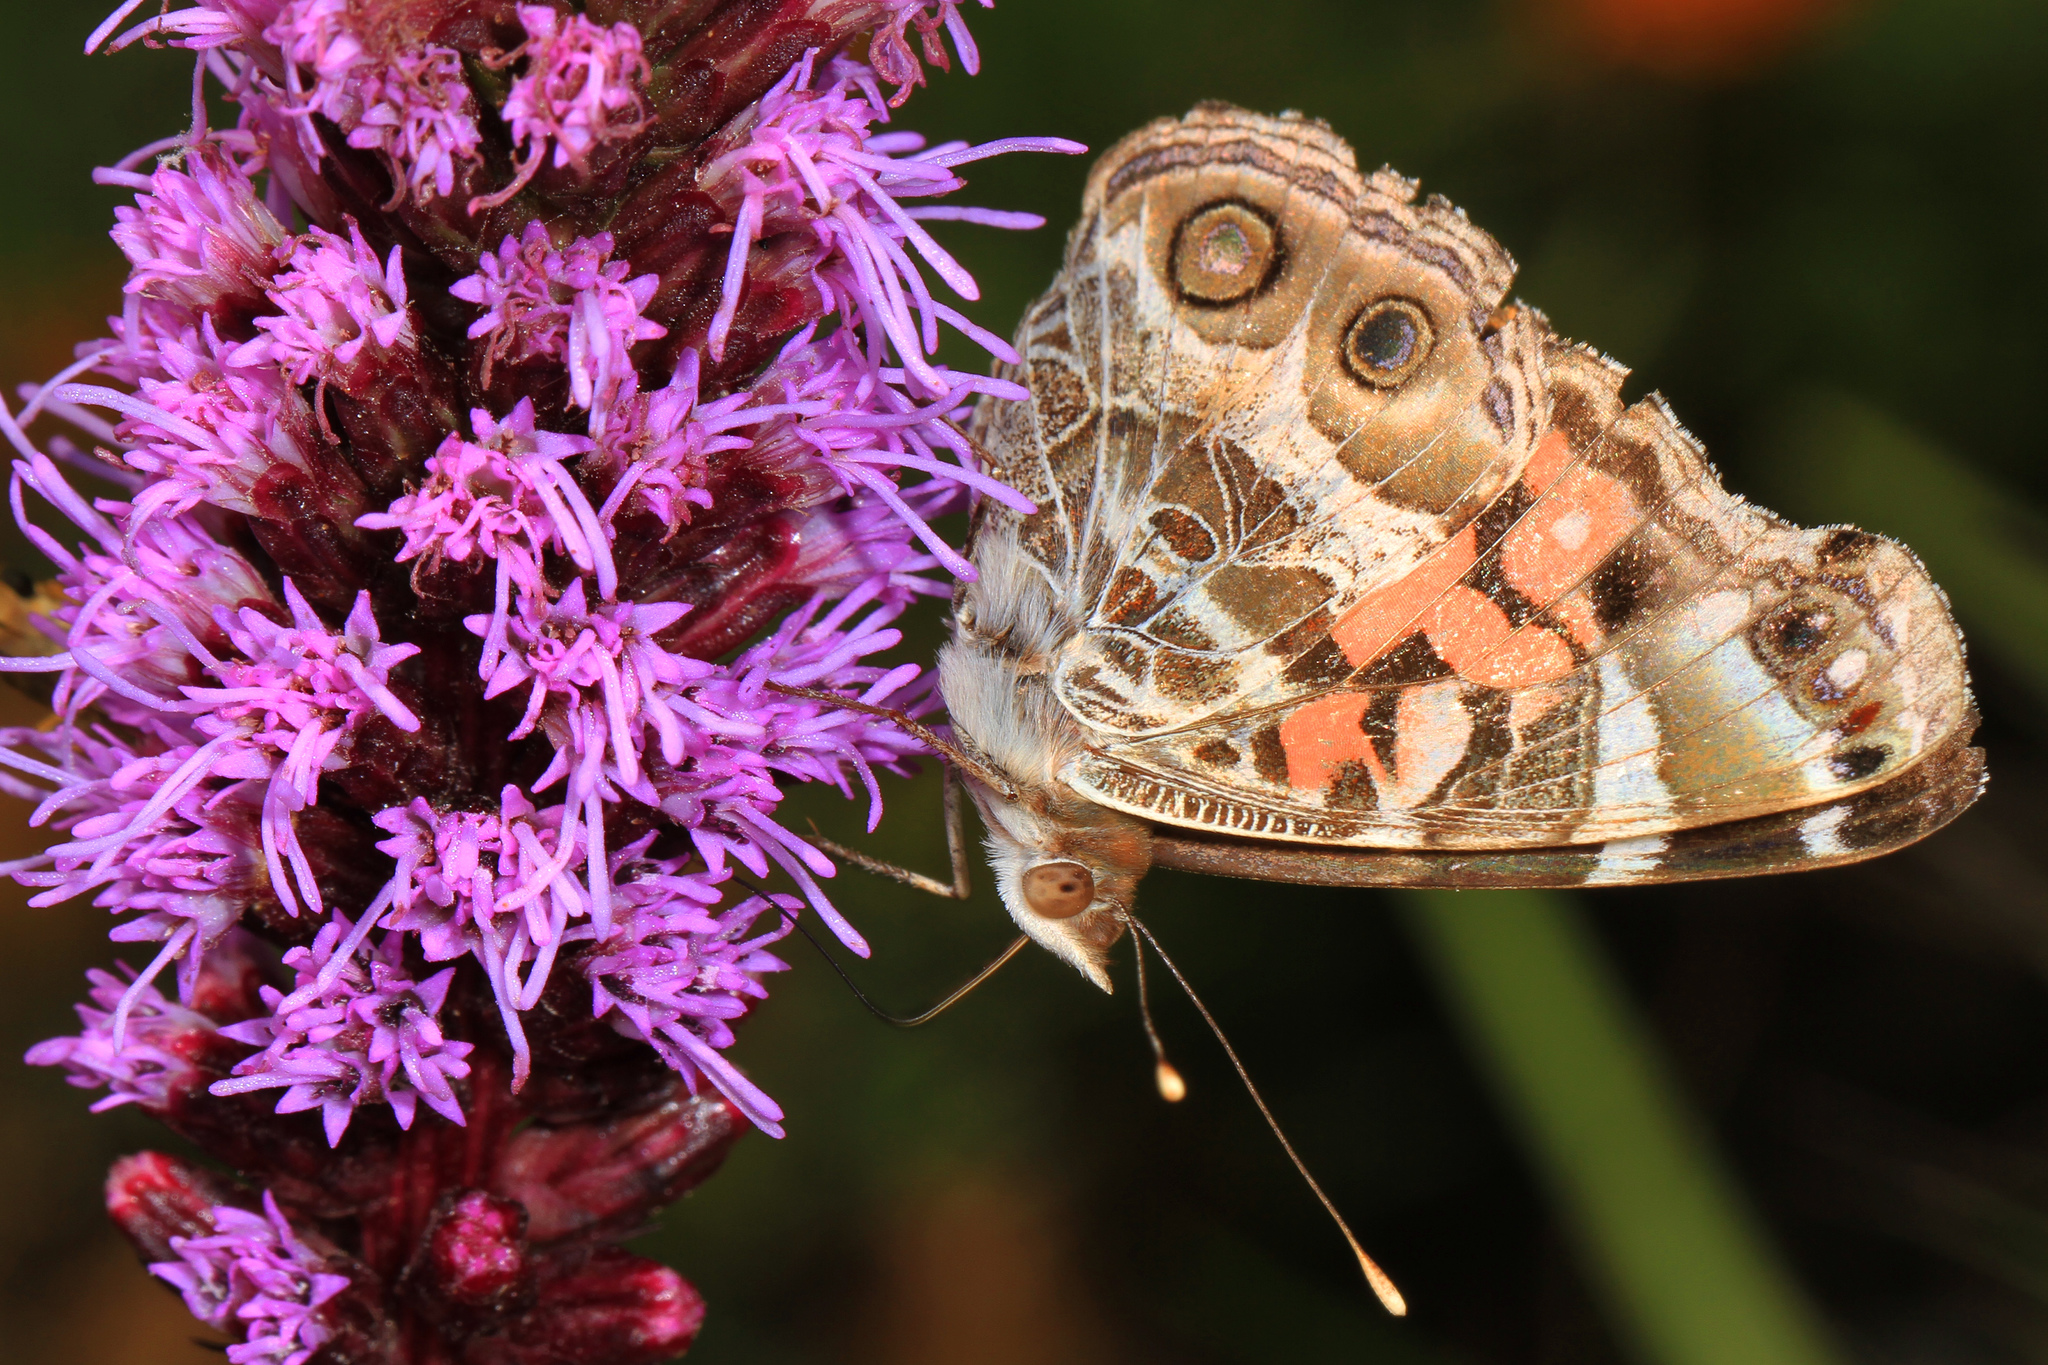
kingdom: Animalia
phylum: Arthropoda
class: Insecta
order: Lepidoptera
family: Nymphalidae
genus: Vanessa
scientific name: Vanessa virginiensis
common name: American lady
